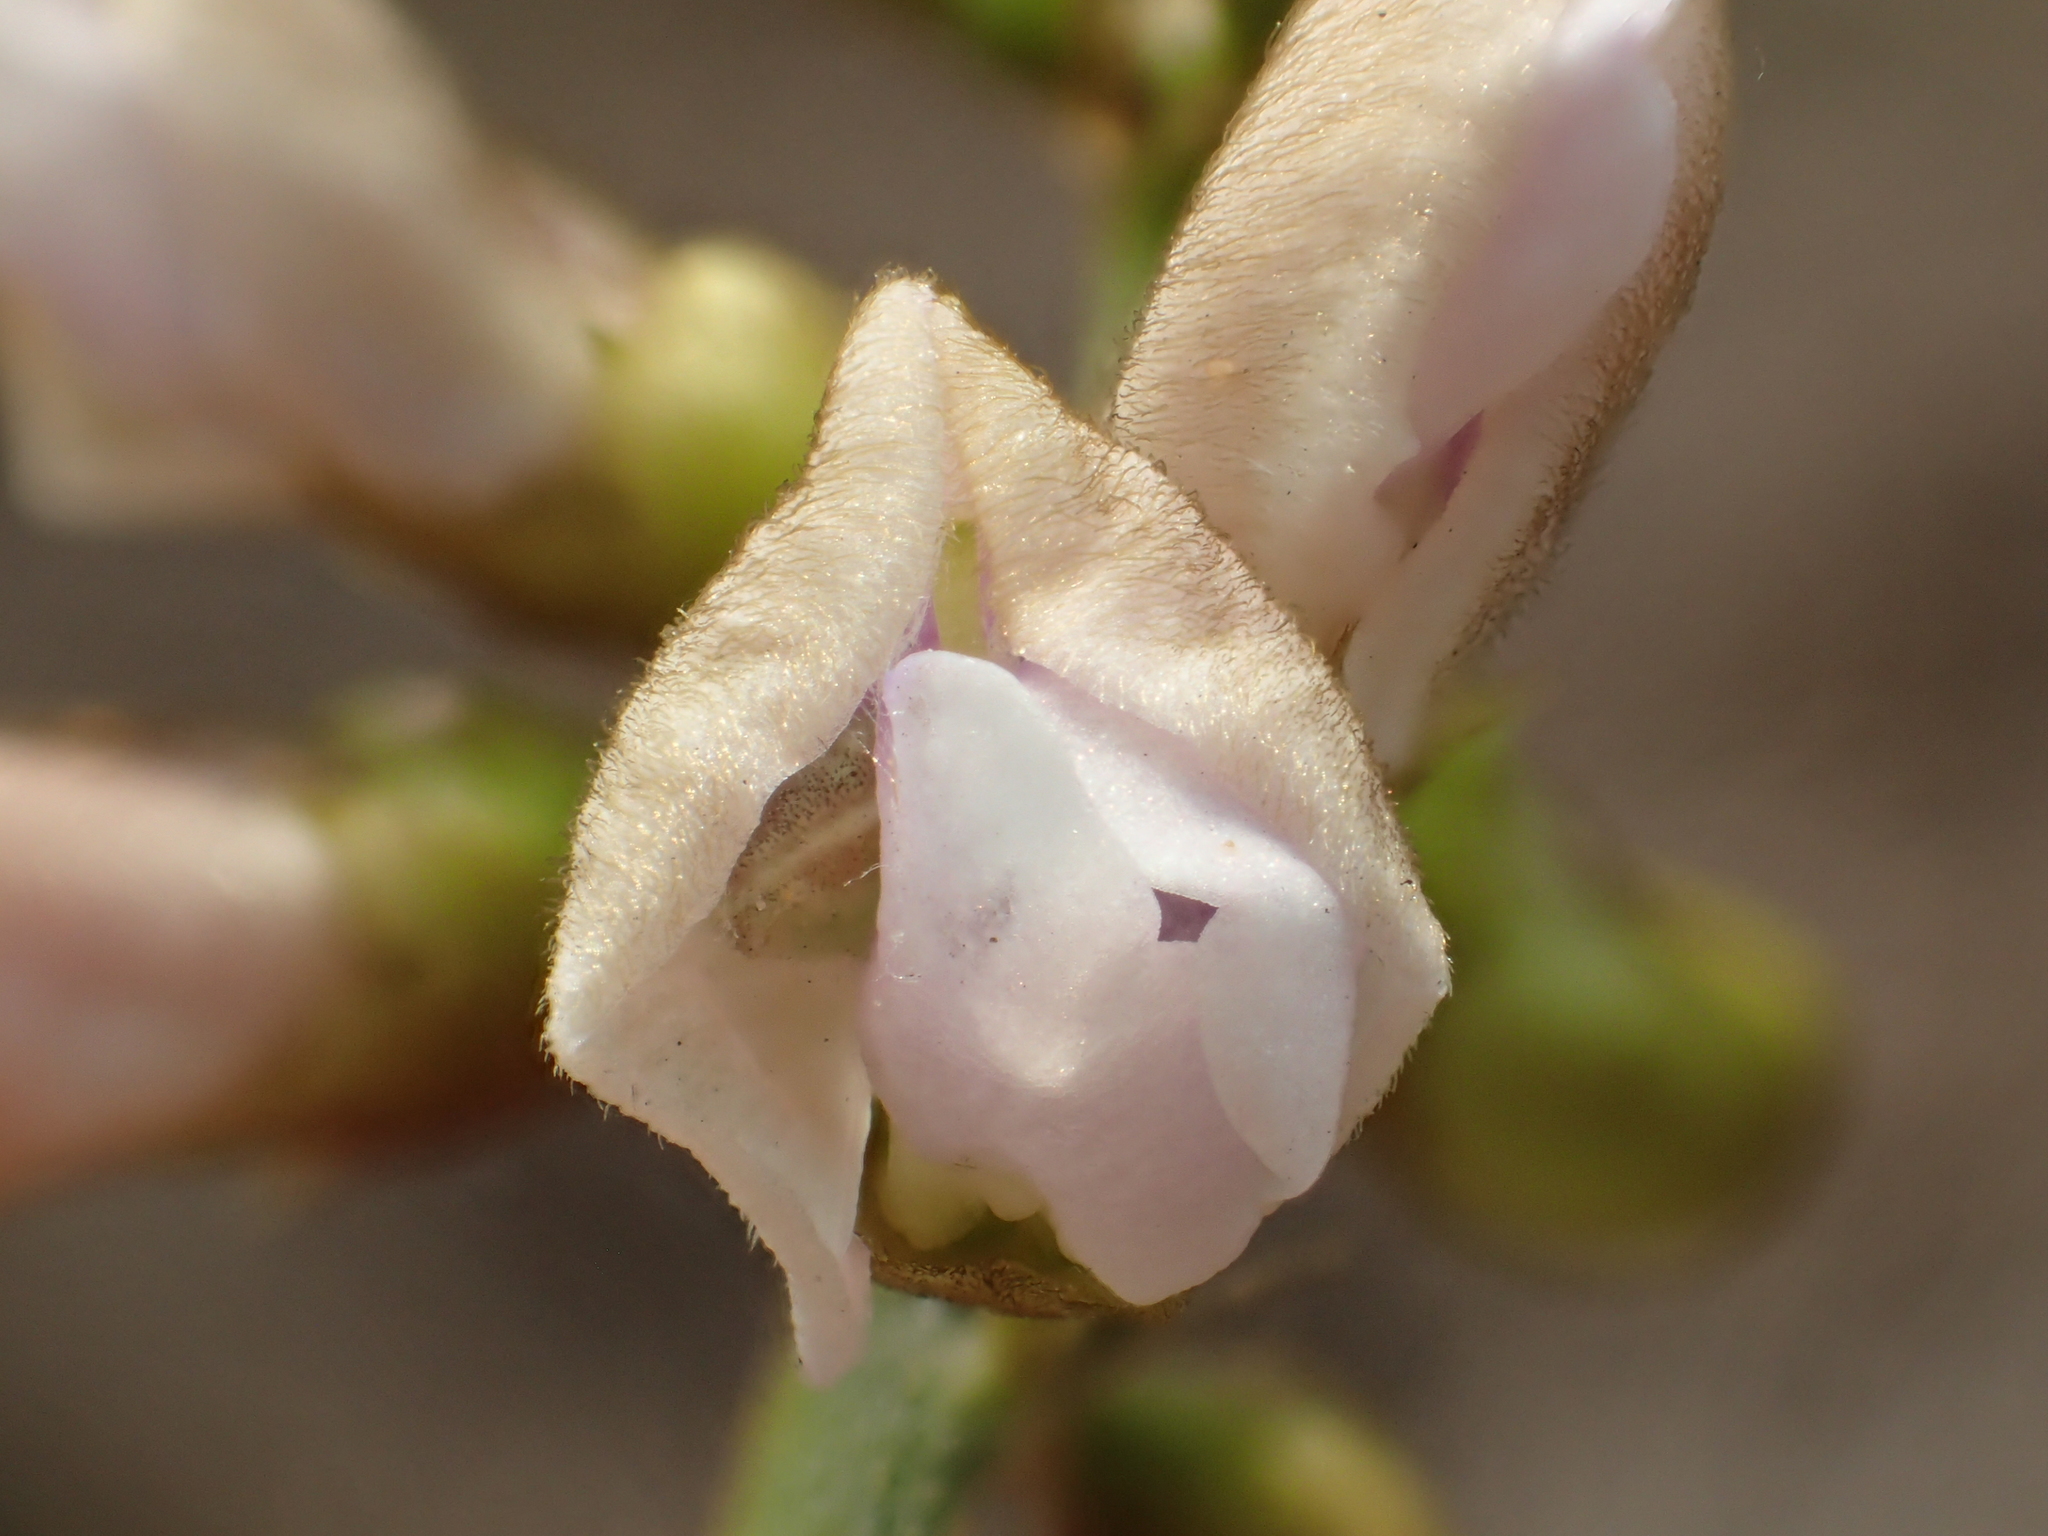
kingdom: Plantae
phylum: Tracheophyta
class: Magnoliopsida
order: Fabales
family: Fabaceae
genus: Tephrosia
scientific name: Tephrosia noctiflora
